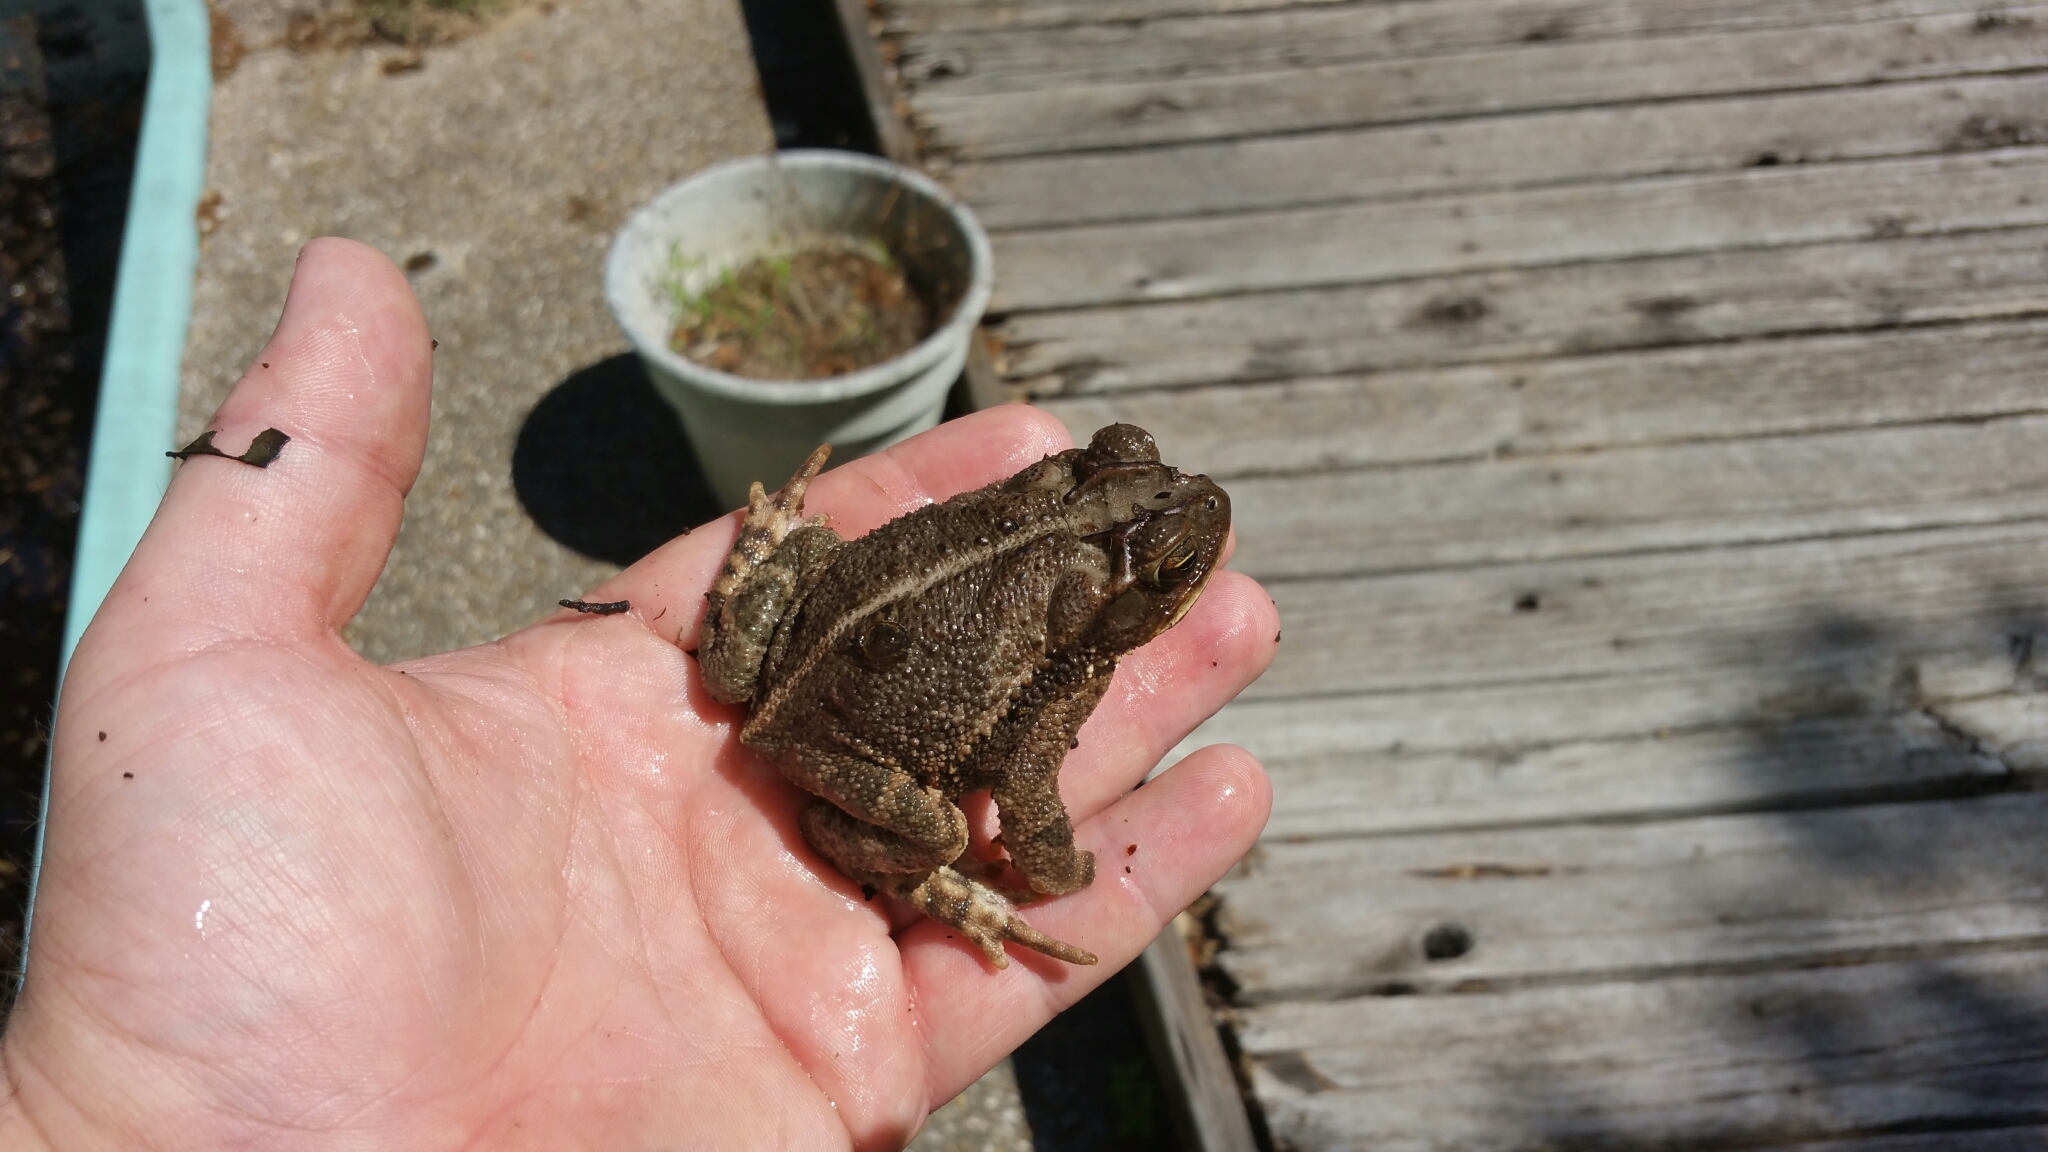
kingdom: Animalia
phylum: Chordata
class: Amphibia
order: Anura
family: Bufonidae
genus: Incilius
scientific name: Incilius nebulifer
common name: Gulf coast toad
